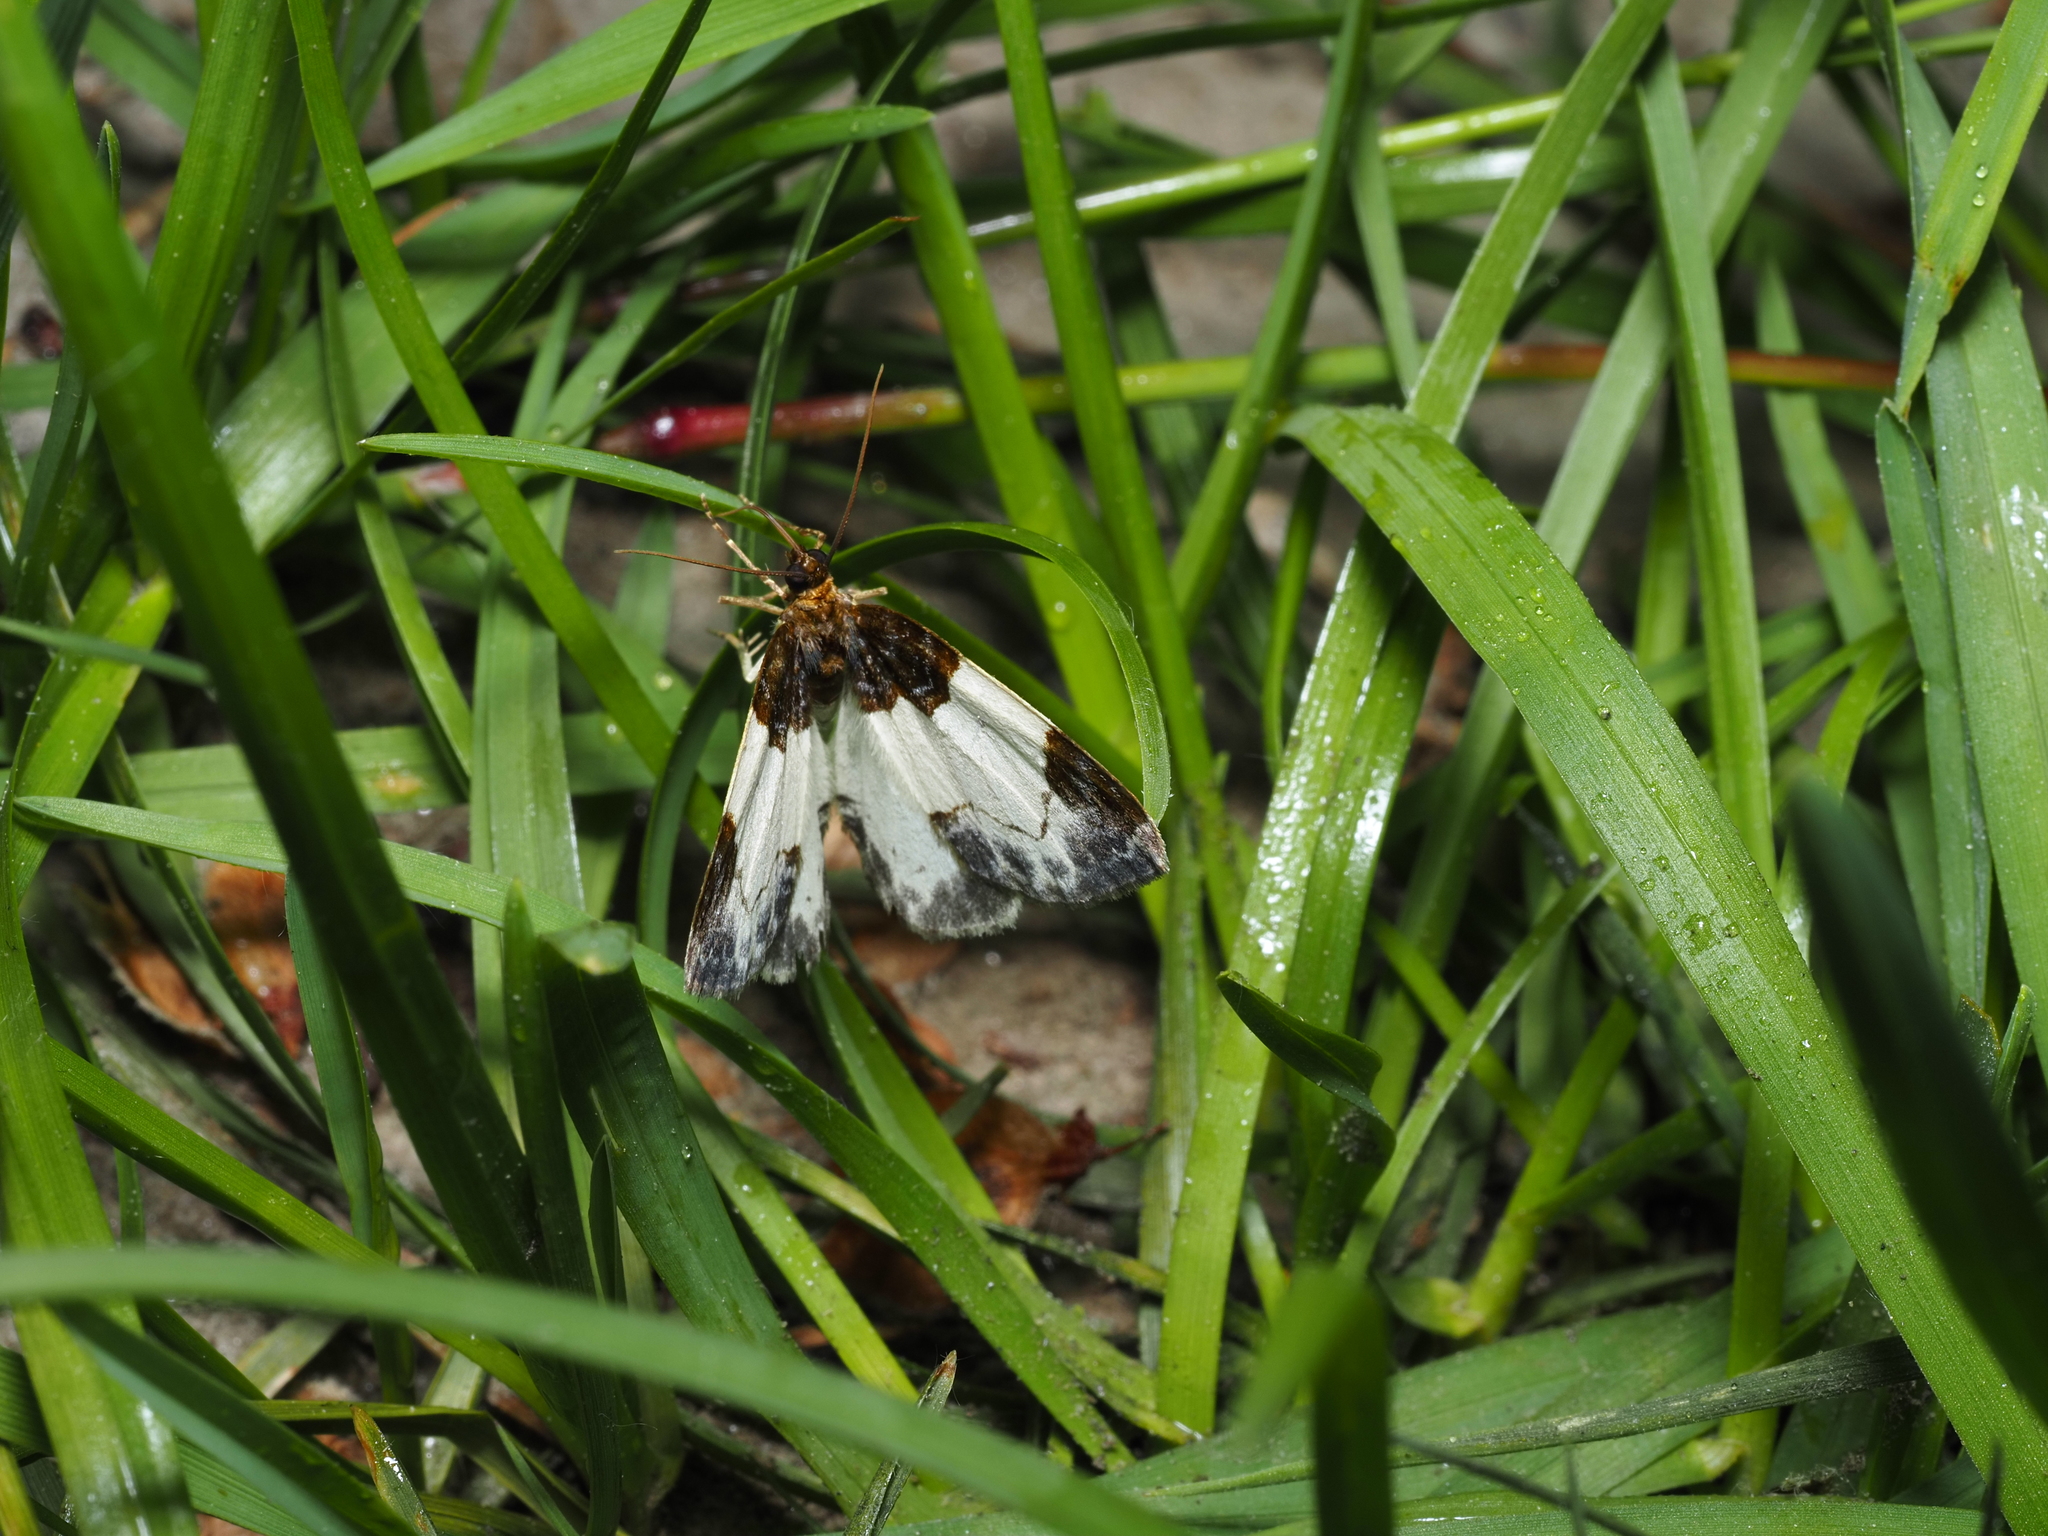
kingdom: Animalia
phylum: Arthropoda
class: Insecta
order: Lepidoptera
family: Geometridae
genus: Mesoleuca
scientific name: Mesoleuca albicillata
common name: Beautiful carpet
